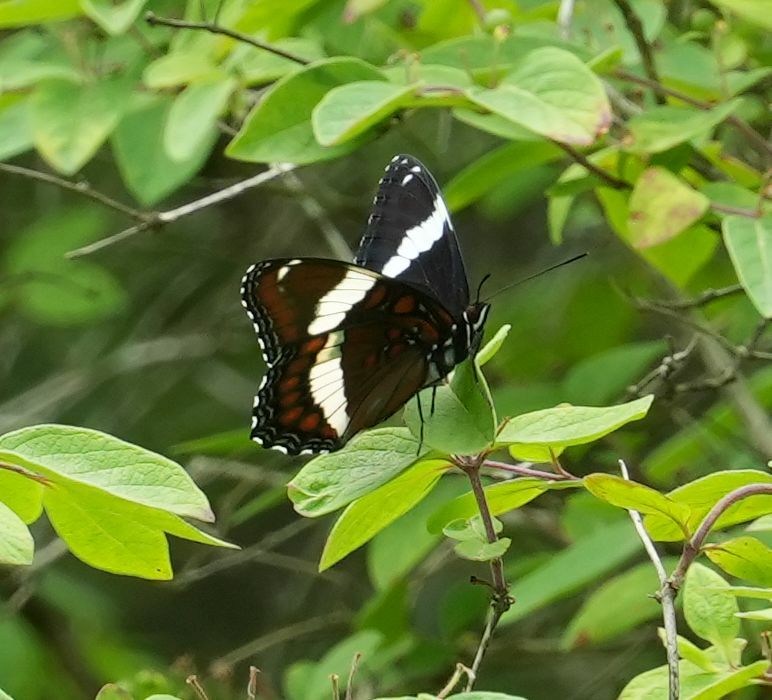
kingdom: Animalia
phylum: Arthropoda
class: Insecta
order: Lepidoptera
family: Nymphalidae
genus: Limenitis
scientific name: Limenitis arthemis
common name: Red-spotted admiral
